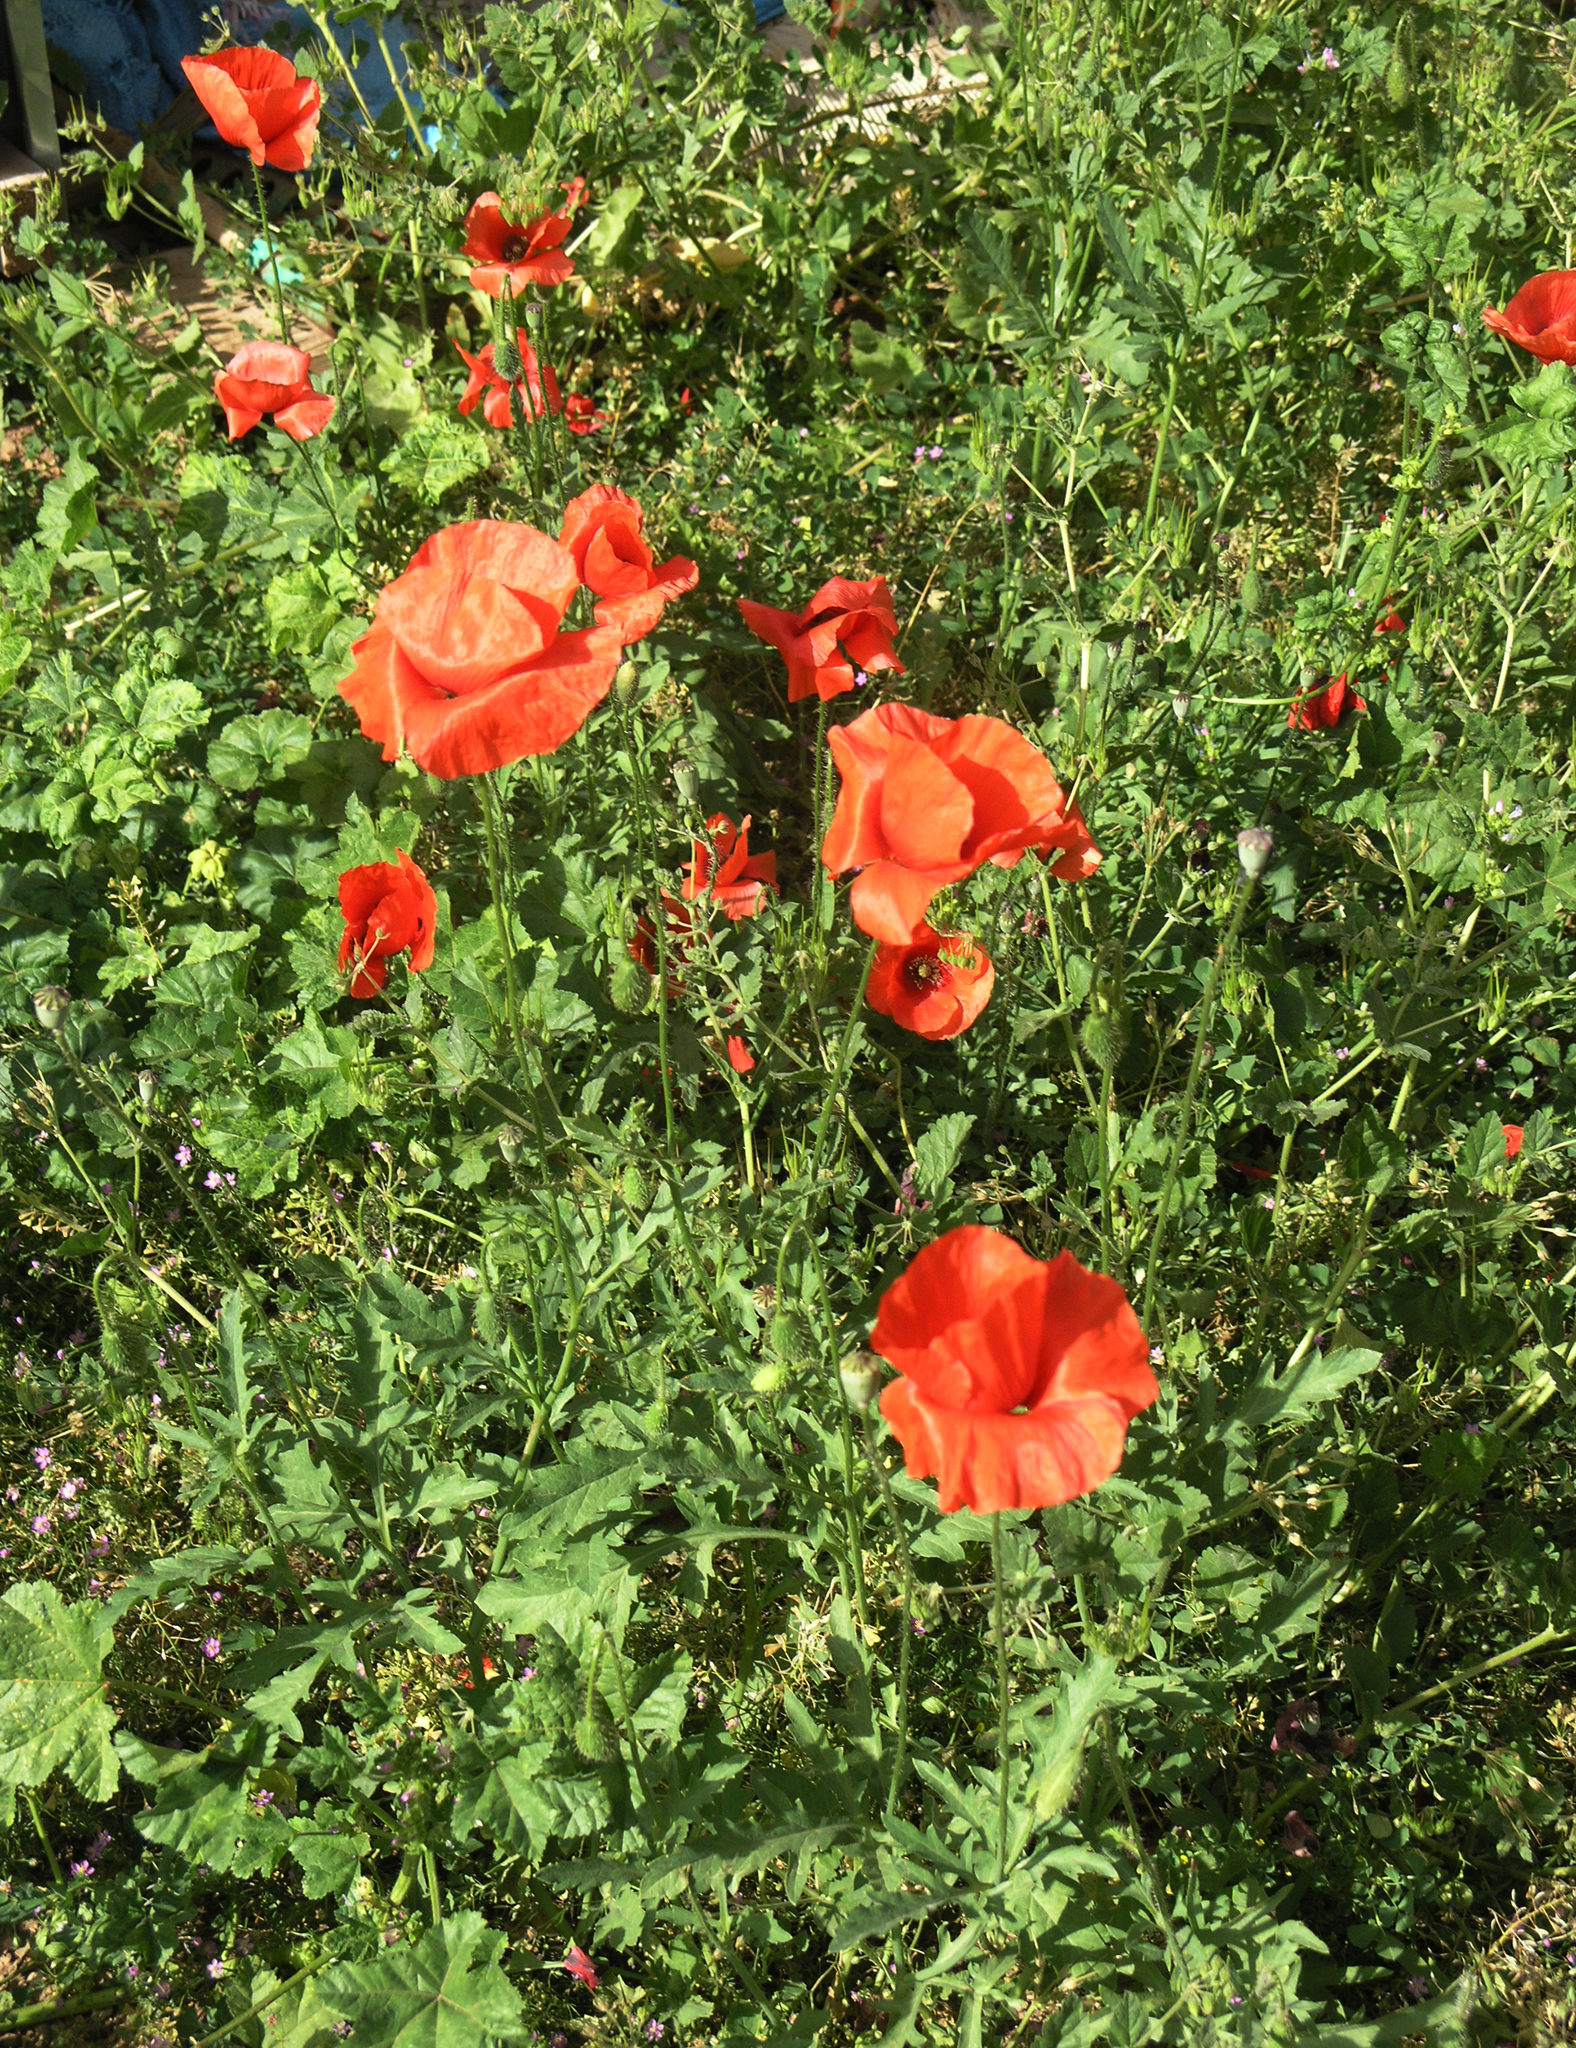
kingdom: Plantae
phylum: Tracheophyta
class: Magnoliopsida
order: Ranunculales
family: Papaveraceae
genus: Papaver
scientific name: Papaver rhoeas
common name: Corn poppy
